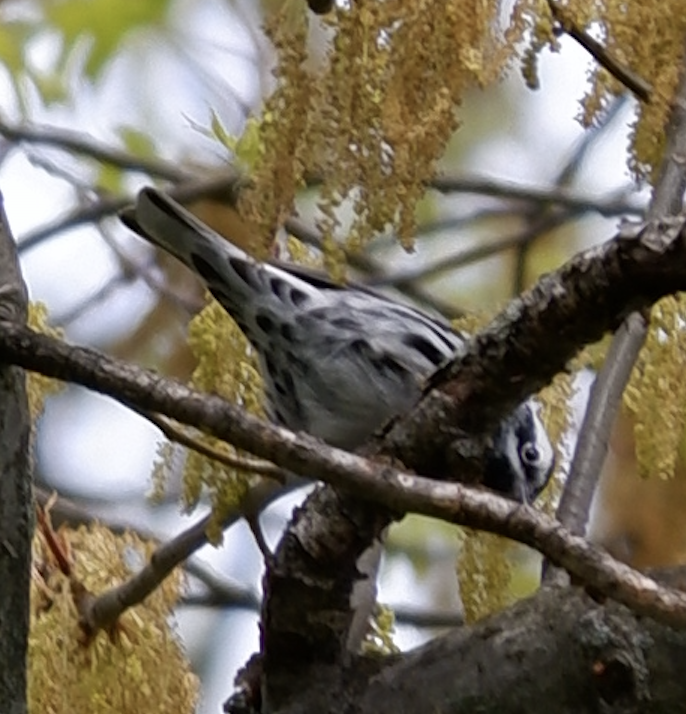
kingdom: Animalia
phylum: Chordata
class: Aves
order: Passeriformes
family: Parulidae
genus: Mniotilta
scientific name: Mniotilta varia
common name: Black-and-white warbler
